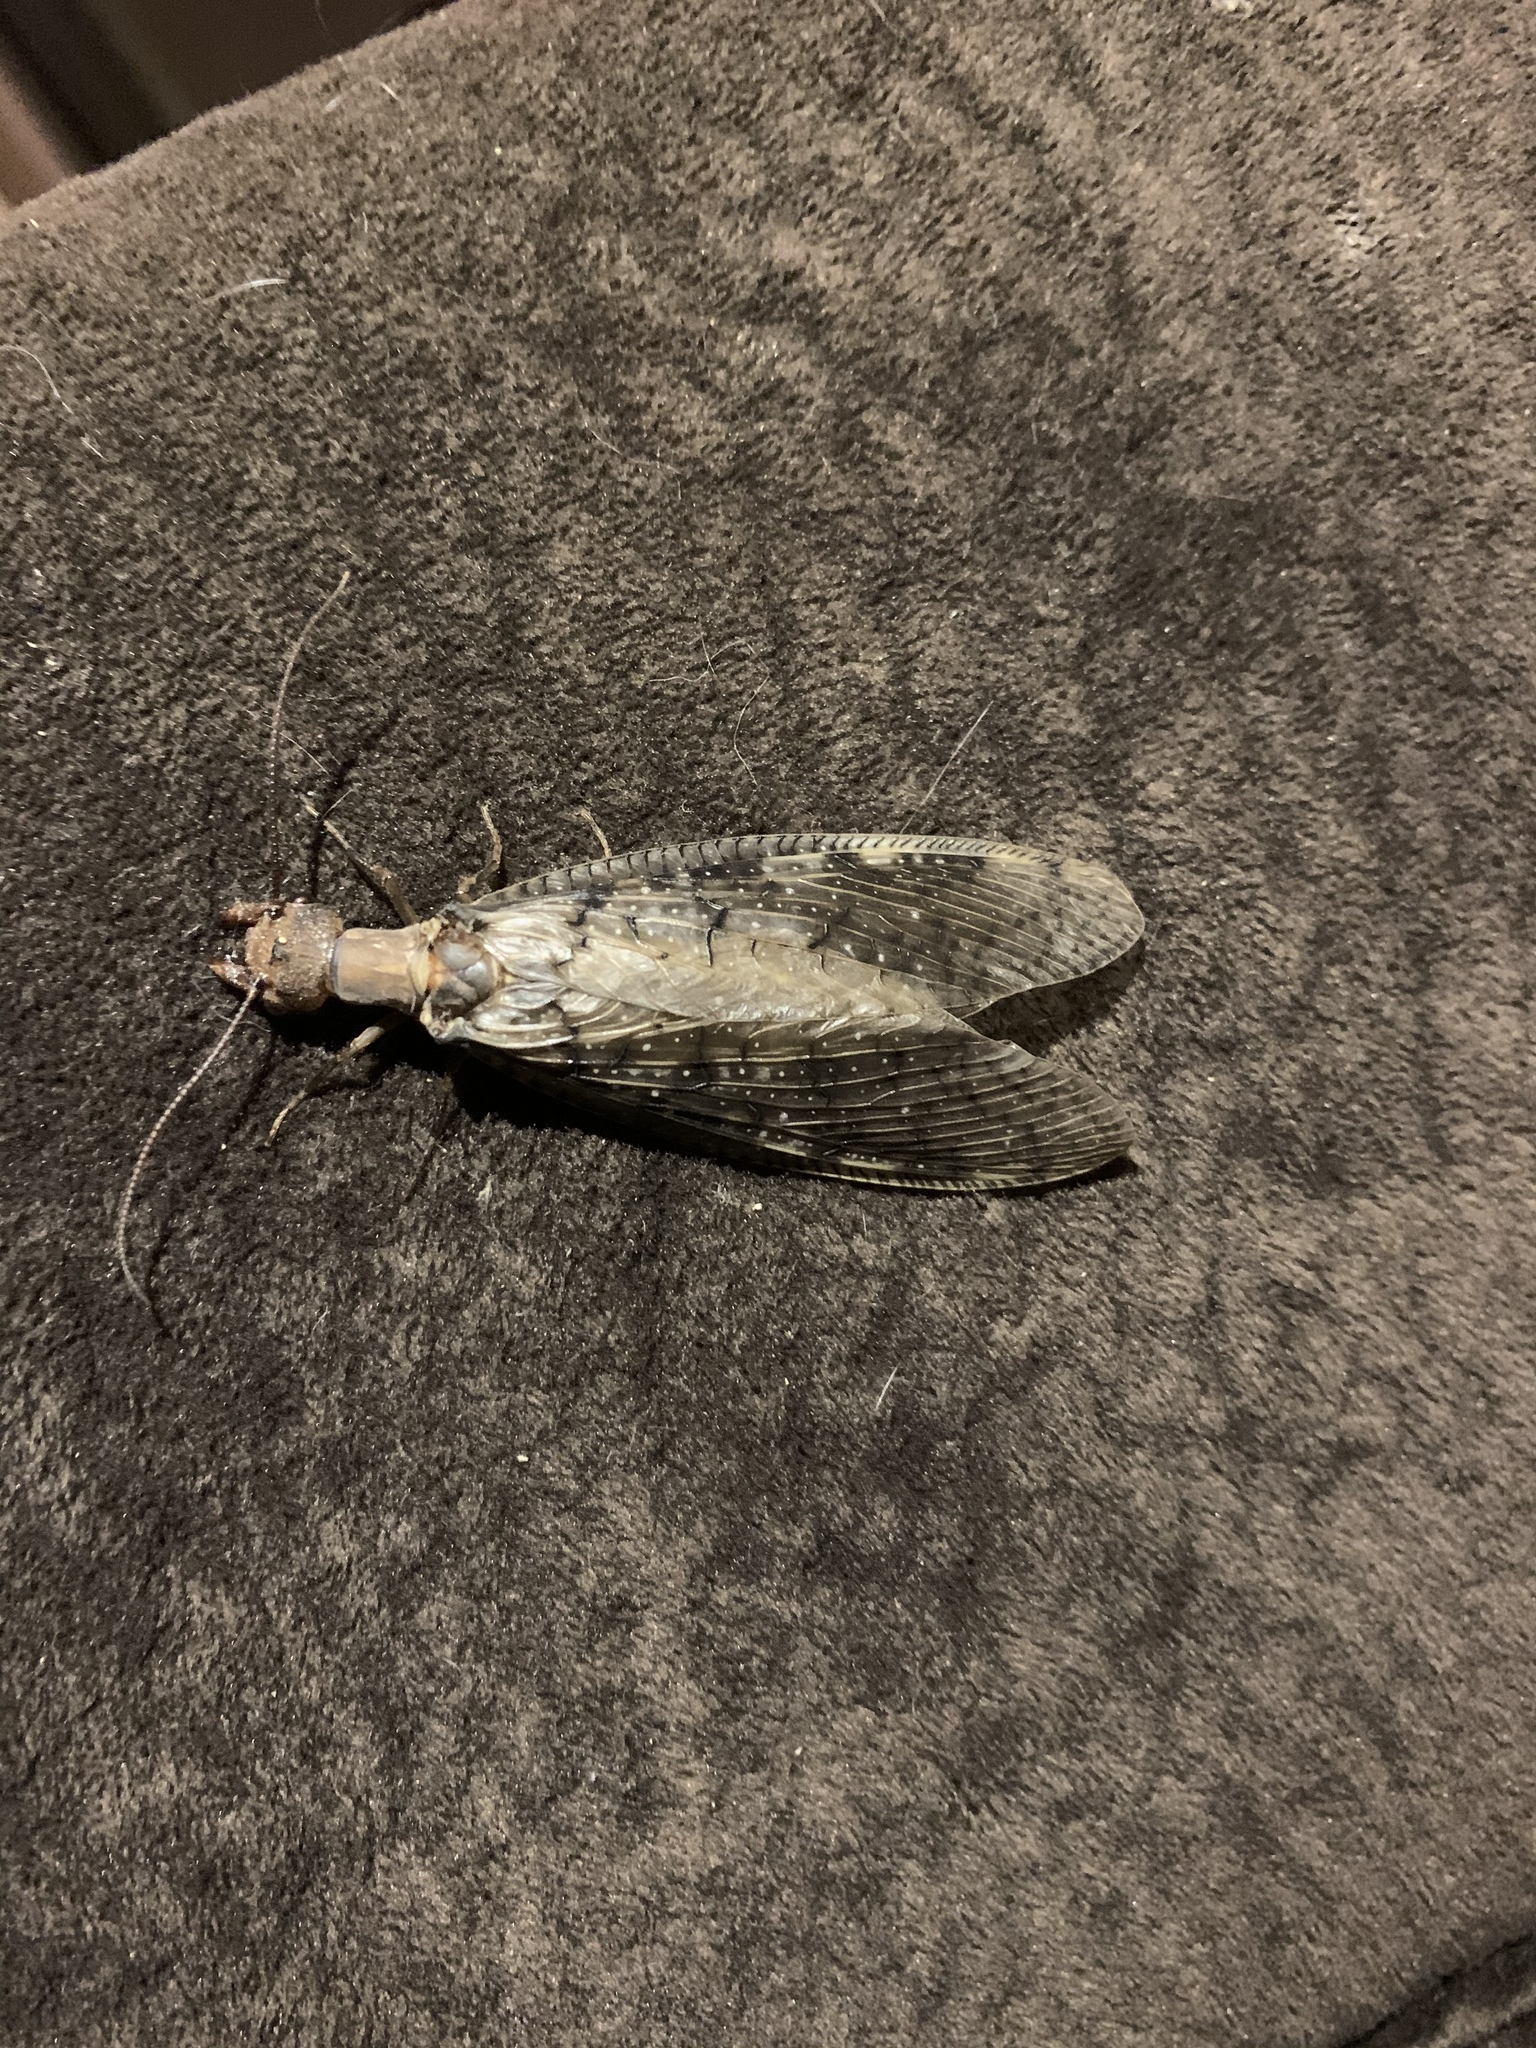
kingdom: Animalia
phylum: Arthropoda
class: Insecta
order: Megaloptera
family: Corydalidae
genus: Corydalus
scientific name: Corydalus cornutus
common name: Dobsonfly
